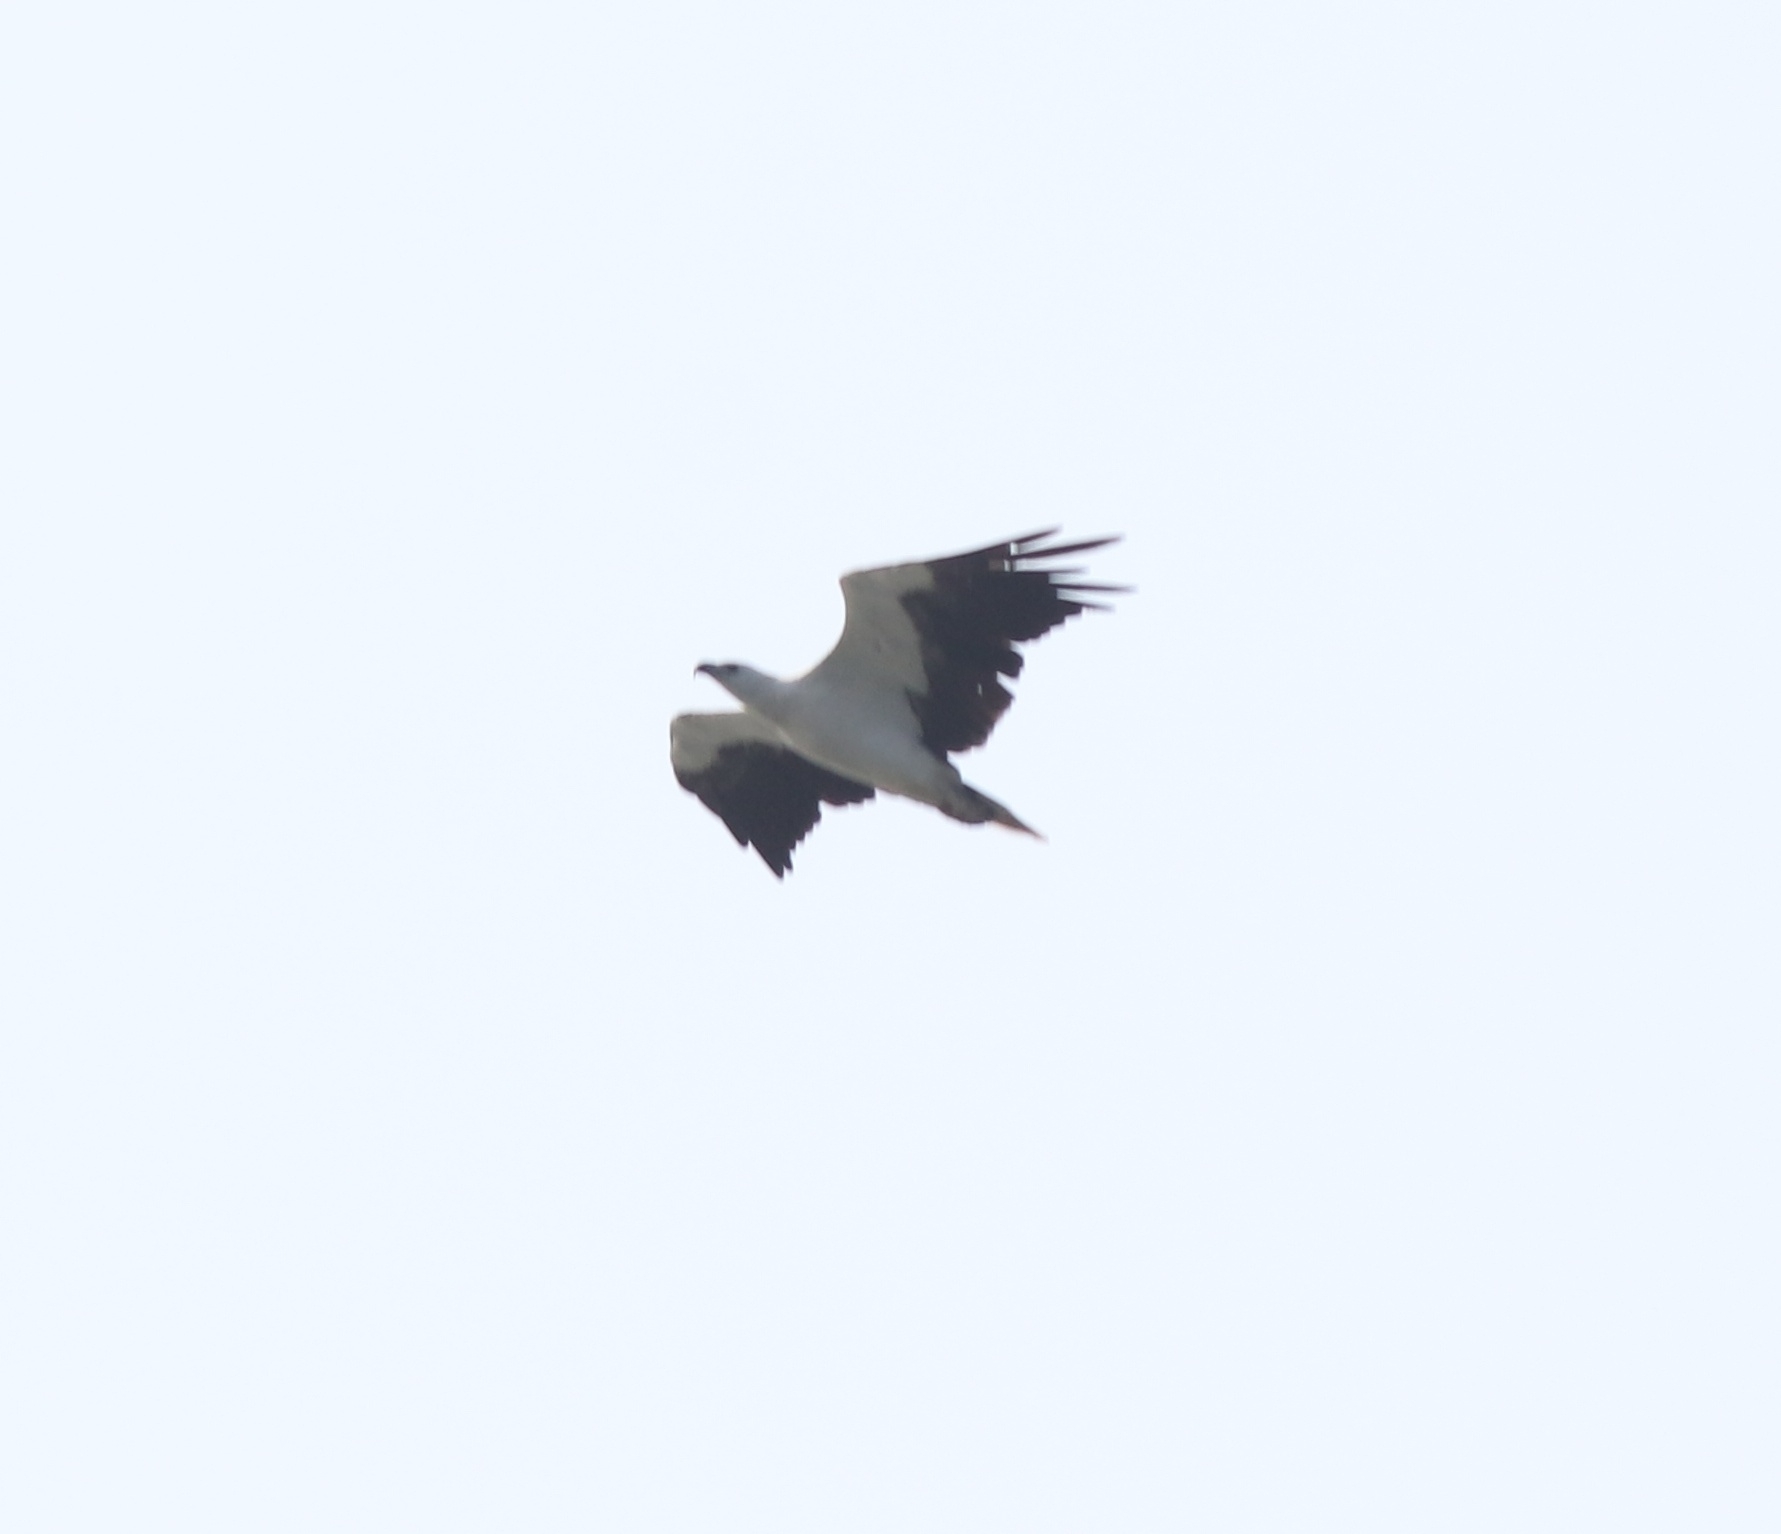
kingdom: Animalia
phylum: Chordata
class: Aves
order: Accipitriformes
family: Accipitridae
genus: Haliaeetus
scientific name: Haliaeetus leucogaster
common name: White-bellied sea eagle
